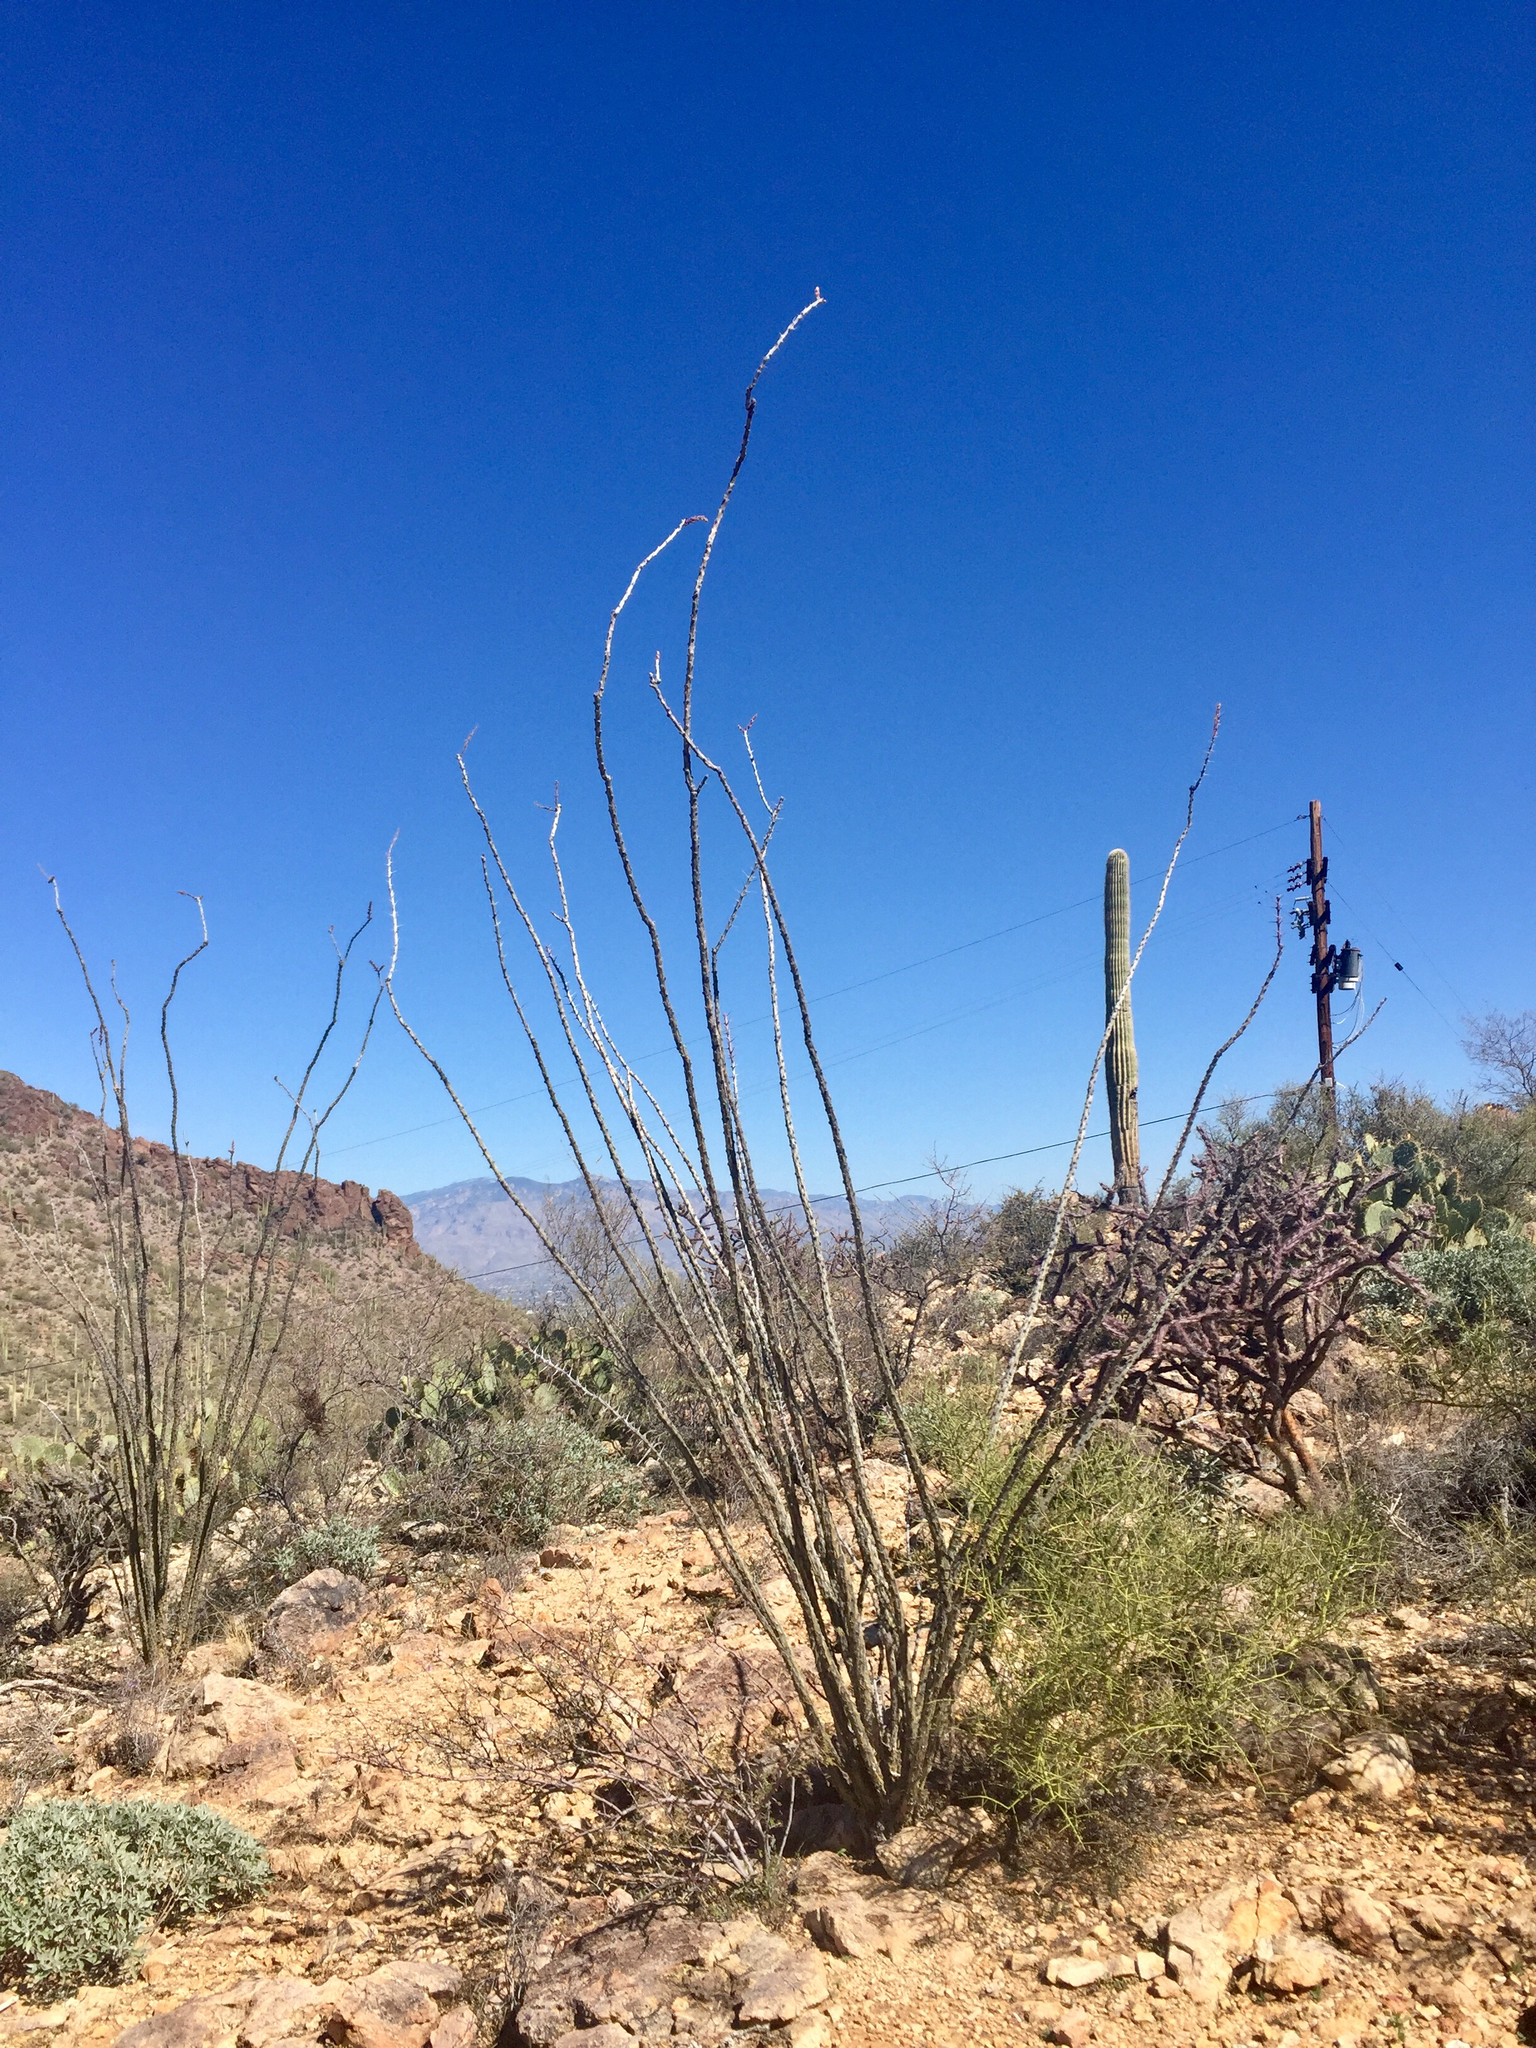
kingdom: Plantae
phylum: Tracheophyta
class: Magnoliopsida
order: Ericales
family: Fouquieriaceae
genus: Fouquieria
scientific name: Fouquieria splendens
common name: Vine-cactus
